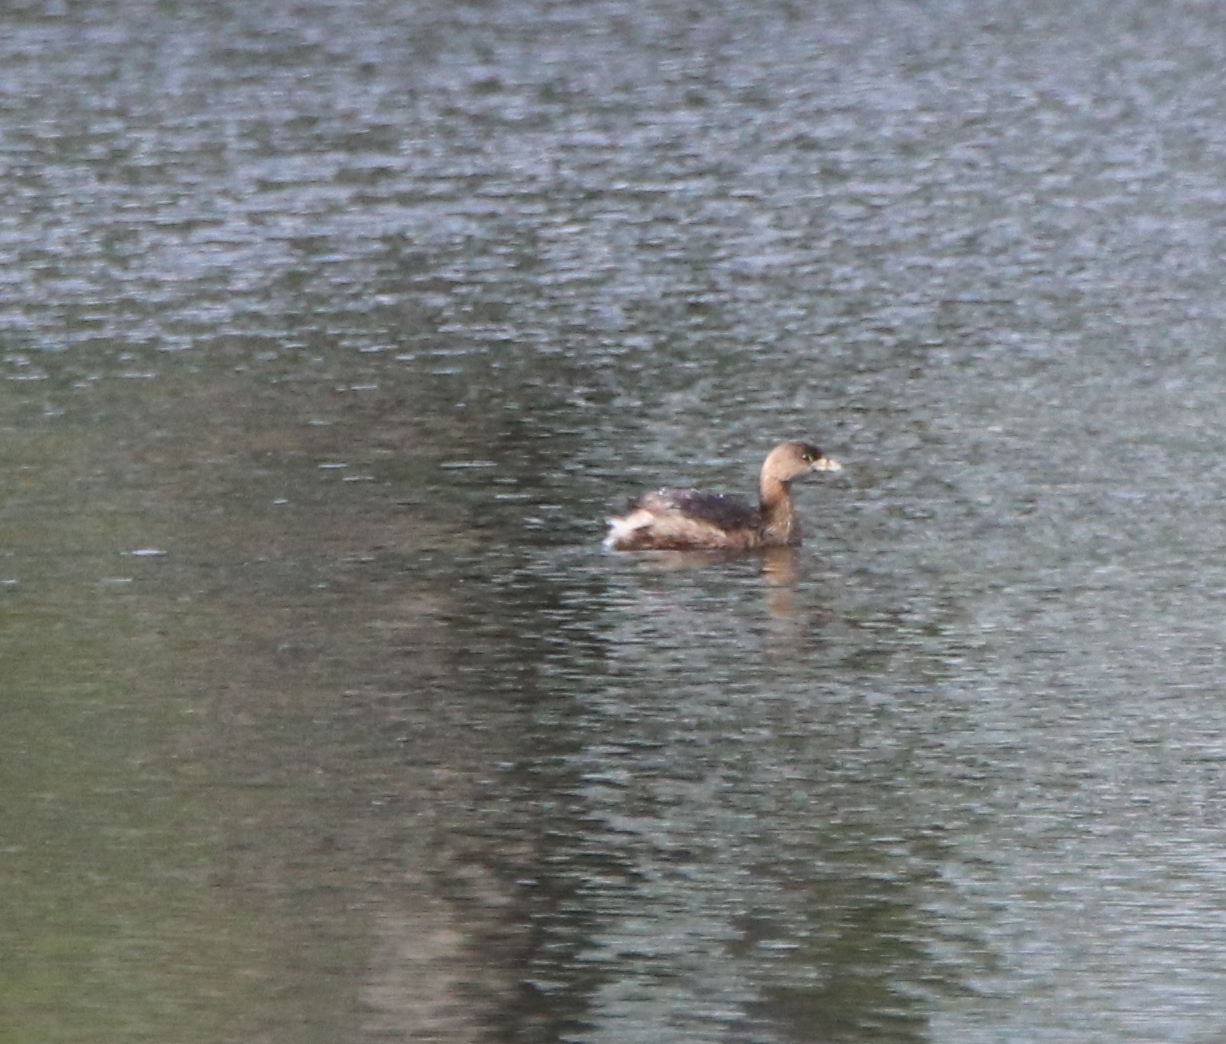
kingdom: Animalia
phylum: Chordata
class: Aves
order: Podicipediformes
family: Podicipedidae
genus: Podilymbus
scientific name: Podilymbus podiceps
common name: Pied-billed grebe
